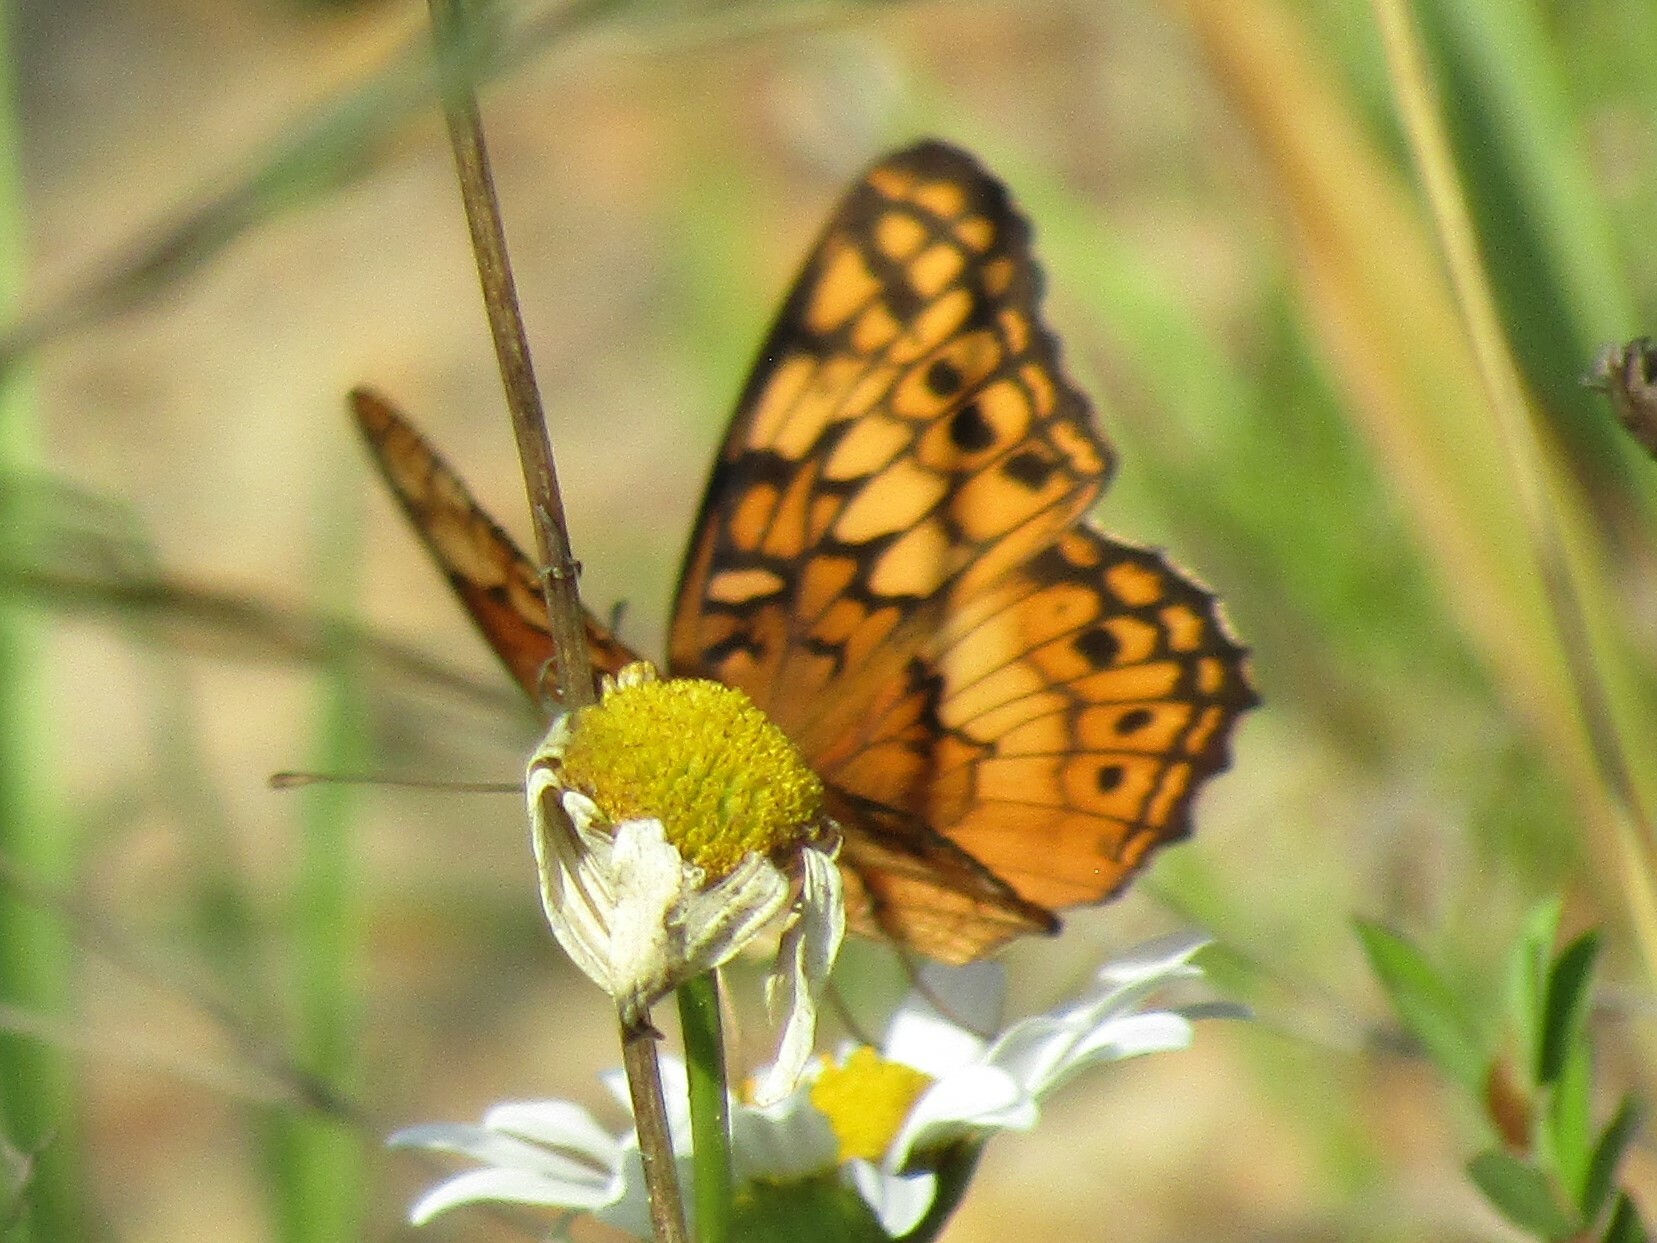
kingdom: Animalia
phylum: Arthropoda
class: Insecta
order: Lepidoptera
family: Nymphalidae
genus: Euptoieta
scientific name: Euptoieta claudia
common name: Variegated fritillary
